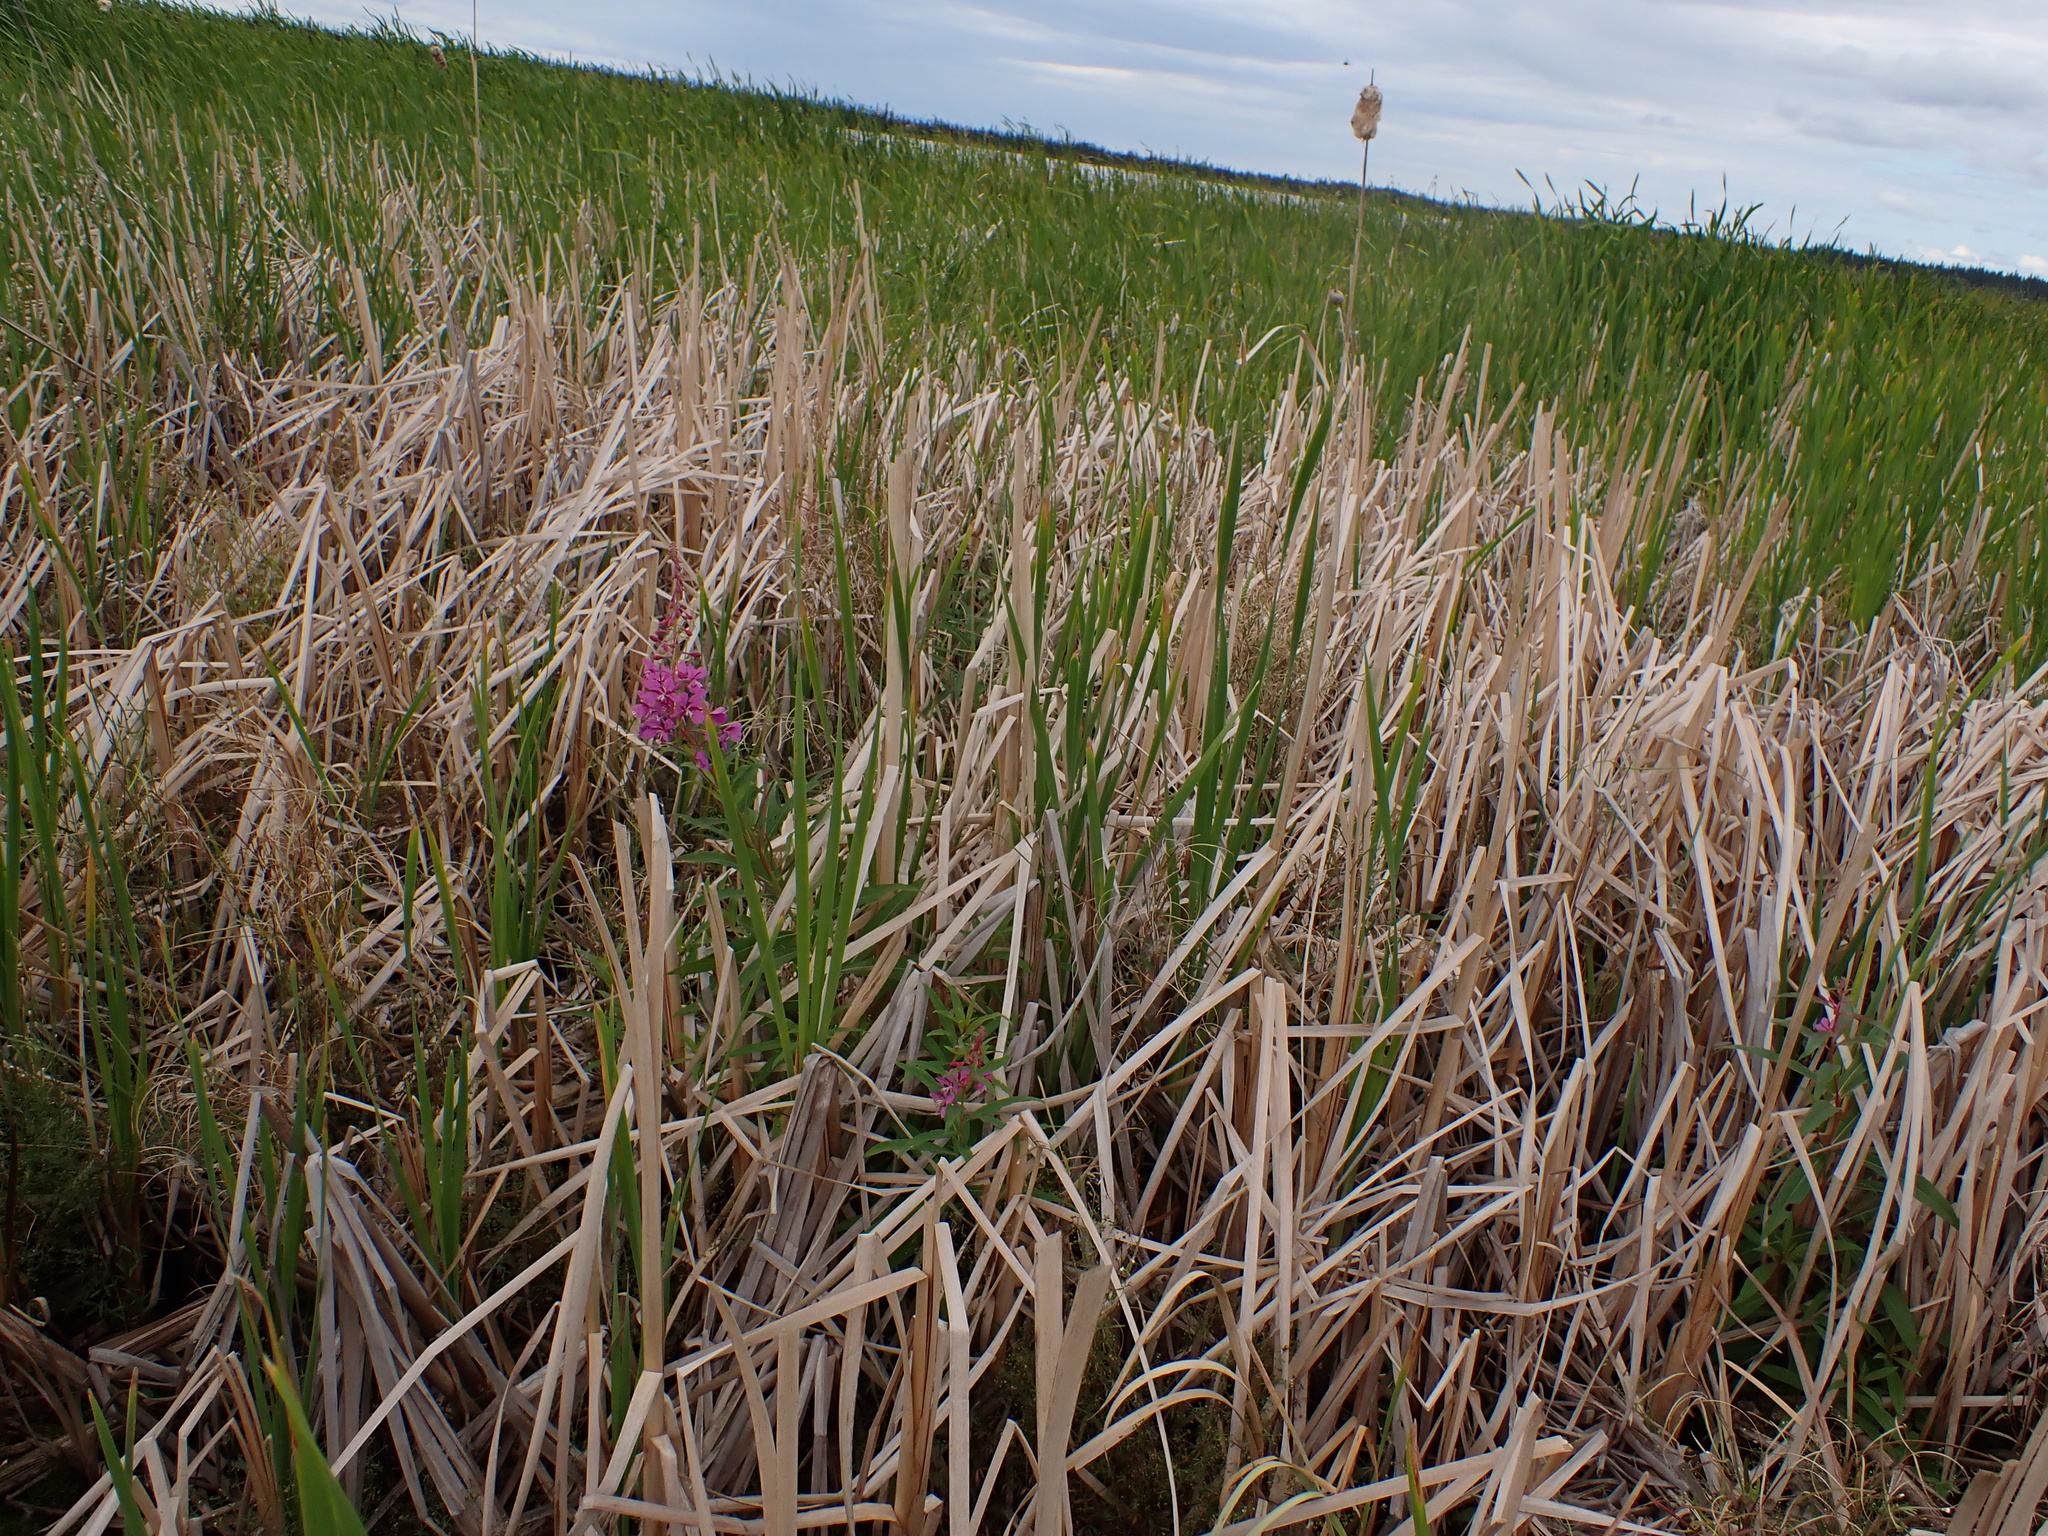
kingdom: Plantae
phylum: Tracheophyta
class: Magnoliopsida
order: Myrtales
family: Onagraceae
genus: Chamaenerion
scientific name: Chamaenerion angustifolium
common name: Fireweed
